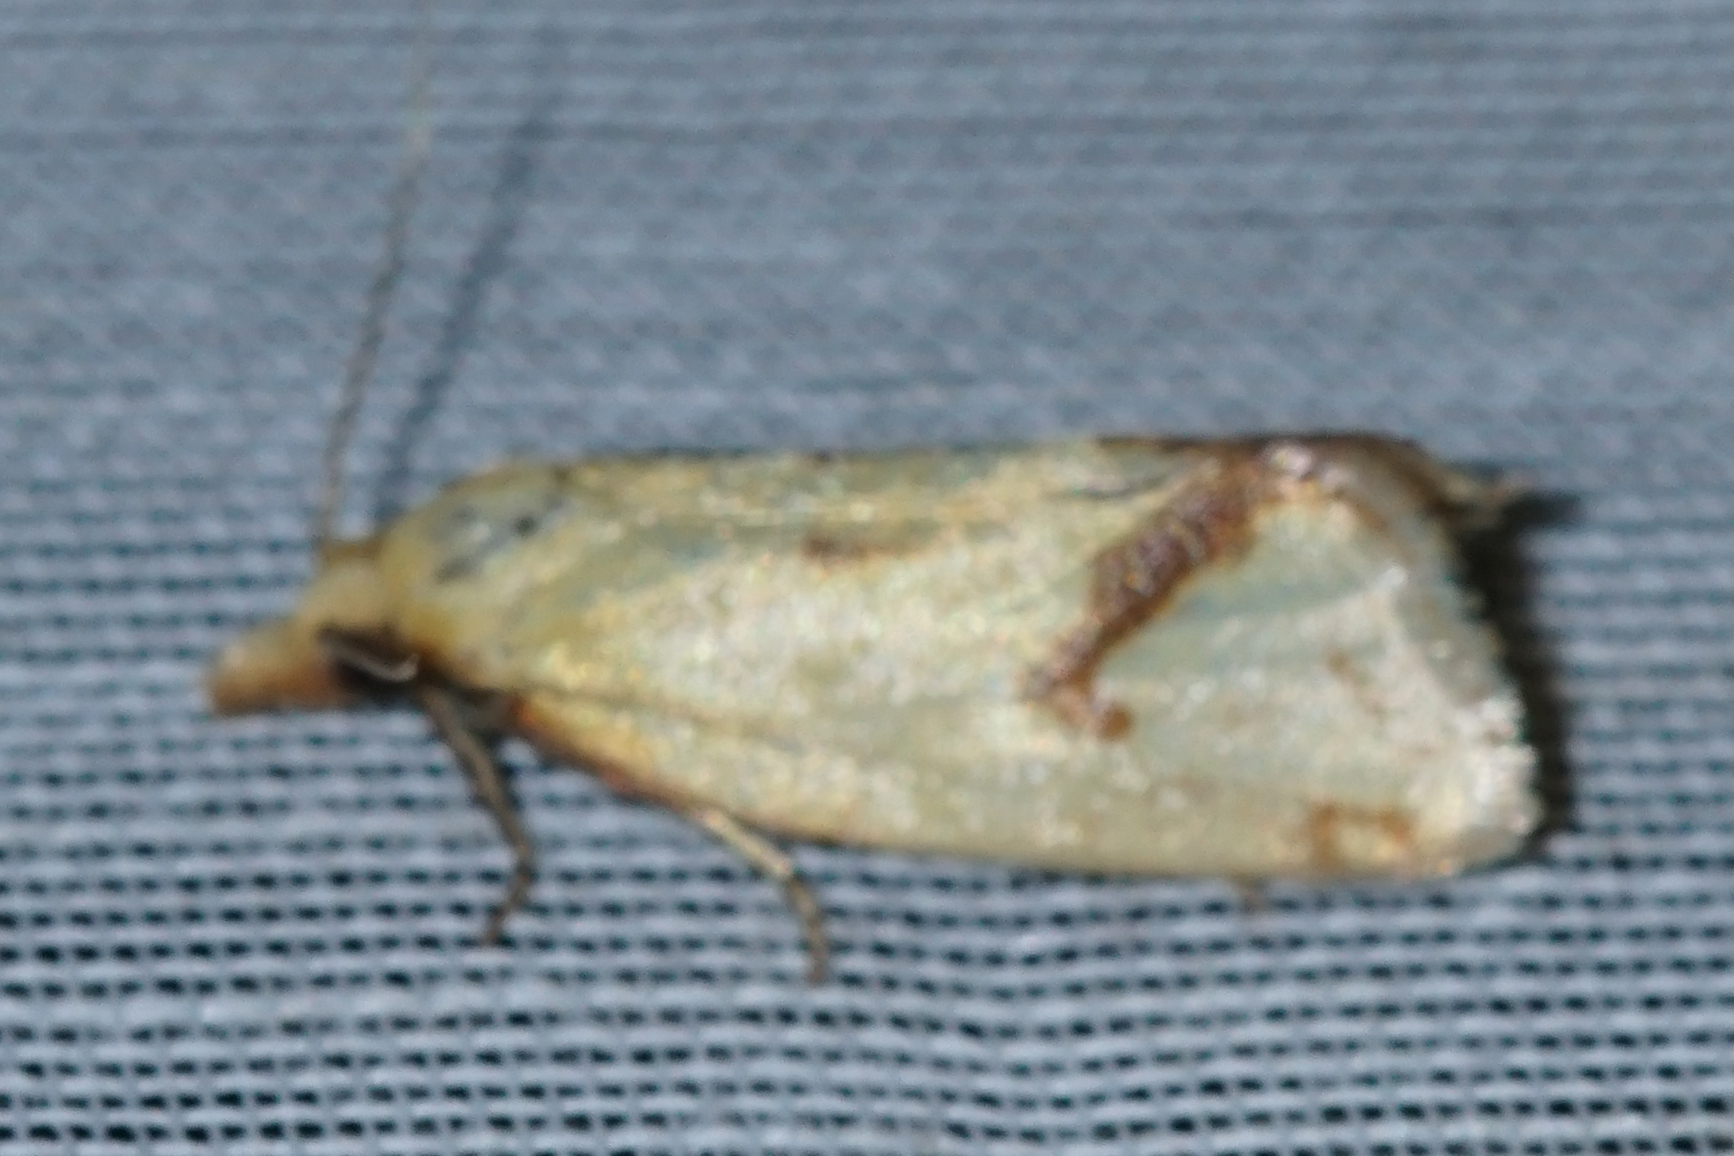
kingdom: Animalia
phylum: Arthropoda
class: Insecta
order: Lepidoptera
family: Tortricidae
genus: Agapeta
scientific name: Agapeta hamana
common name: Common yellow conch
